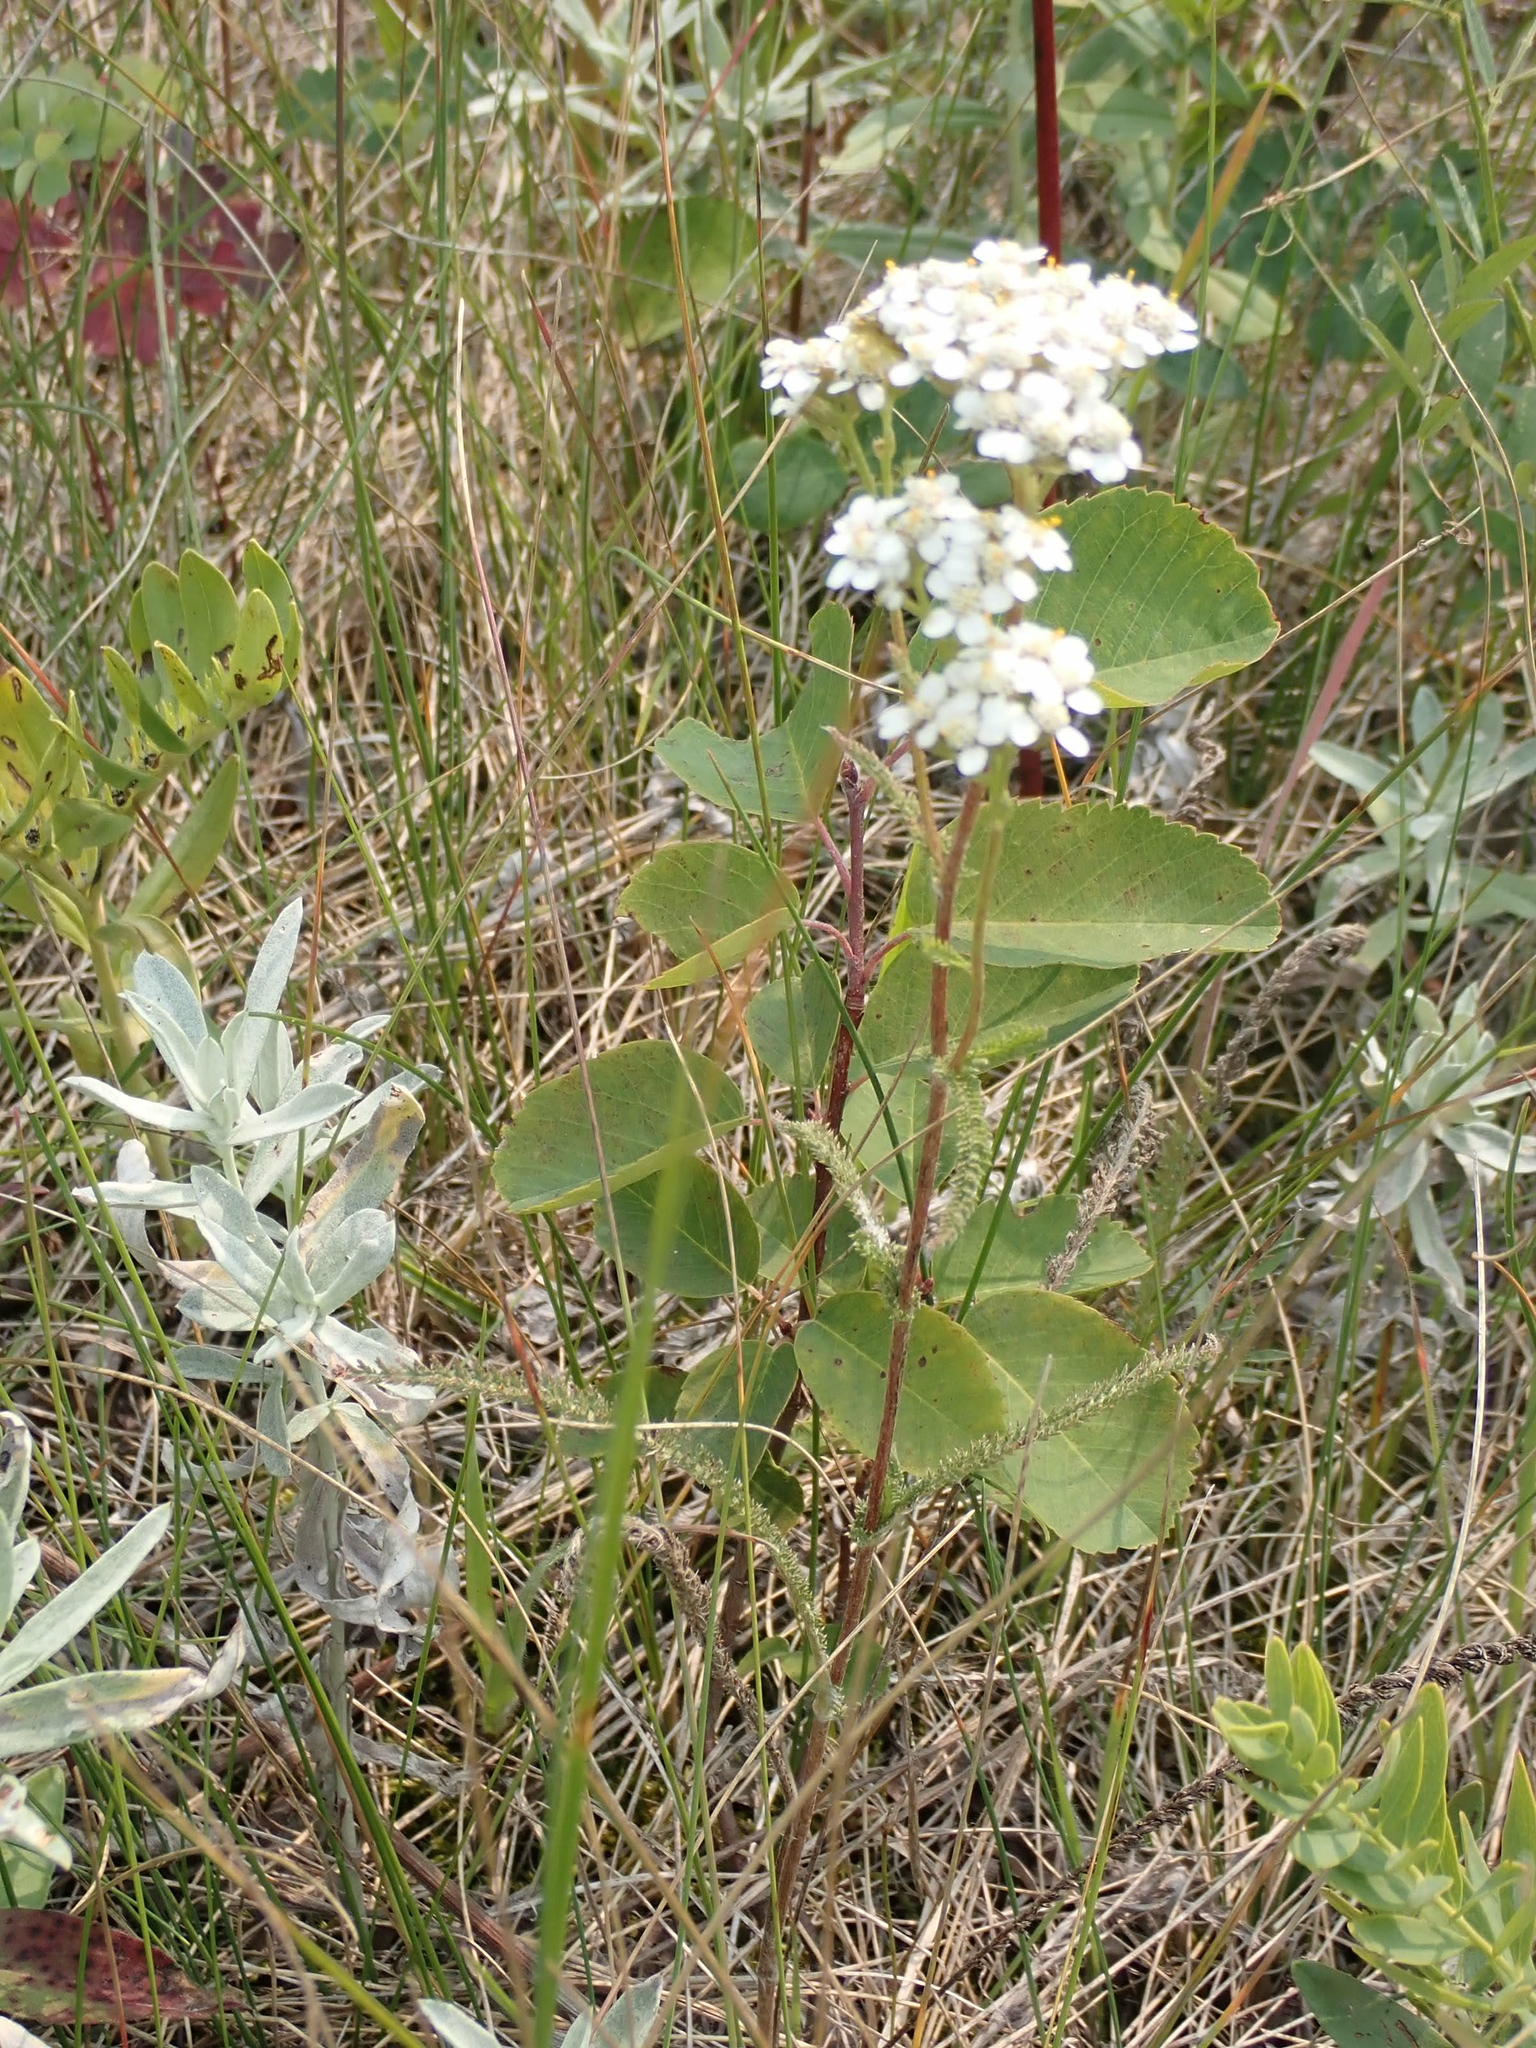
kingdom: Plantae
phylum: Tracheophyta
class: Magnoliopsida
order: Asterales
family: Asteraceae
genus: Achillea
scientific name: Achillea millefolium
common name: Yarrow
